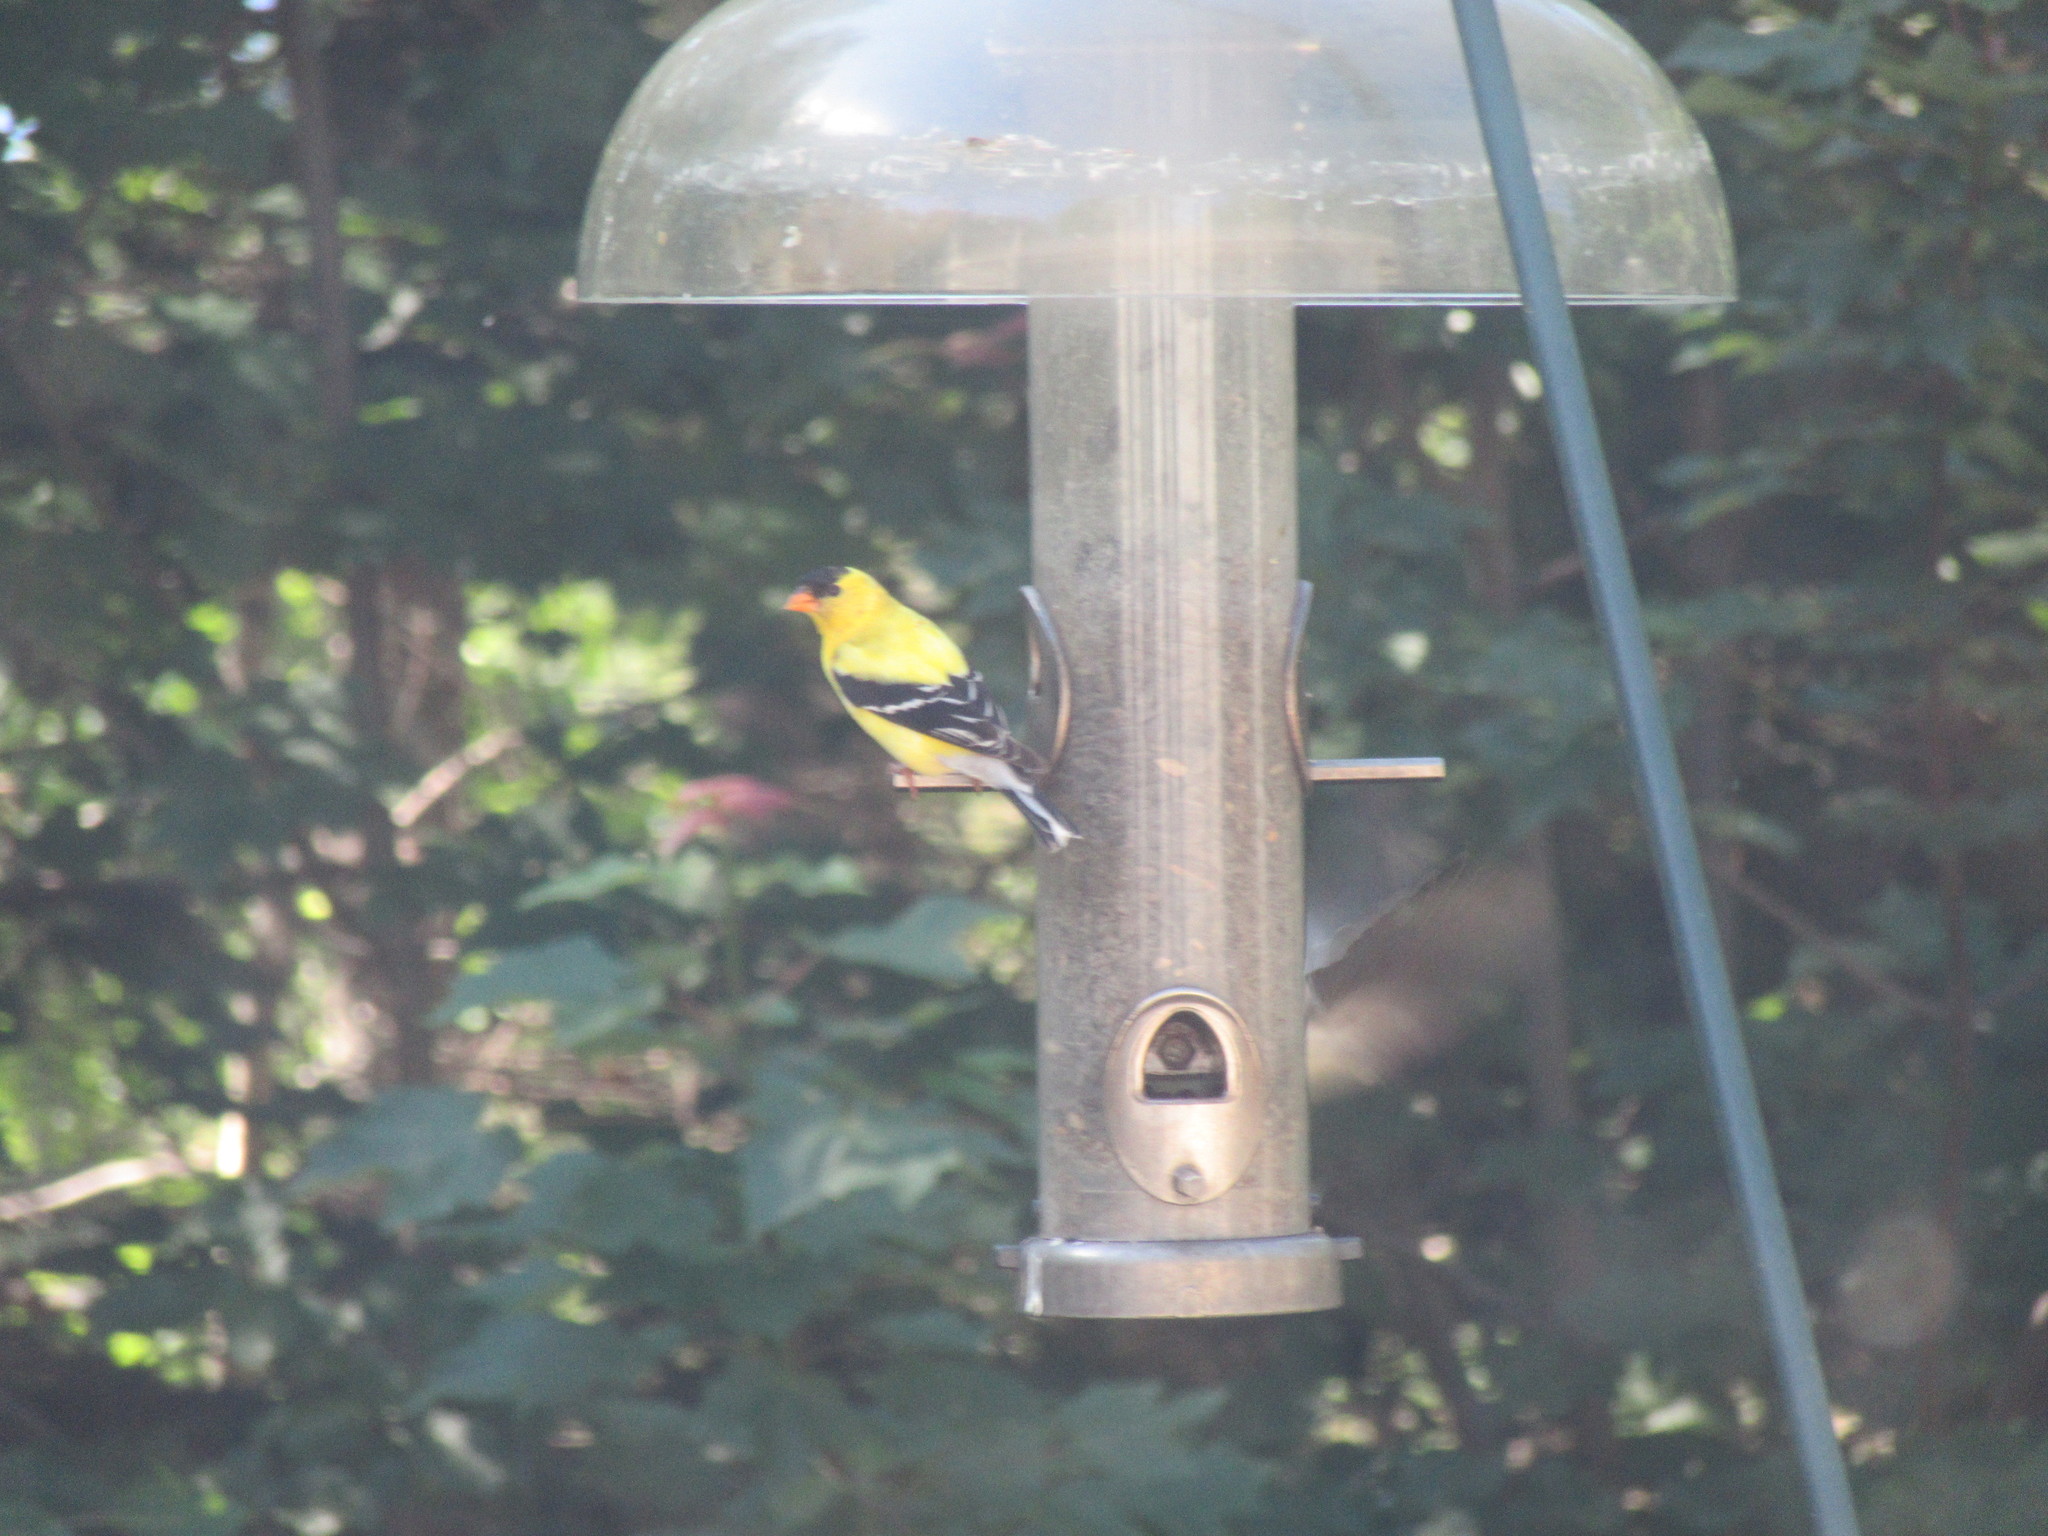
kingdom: Animalia
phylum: Chordata
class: Aves
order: Passeriformes
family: Fringillidae
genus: Spinus
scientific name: Spinus tristis
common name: American goldfinch
